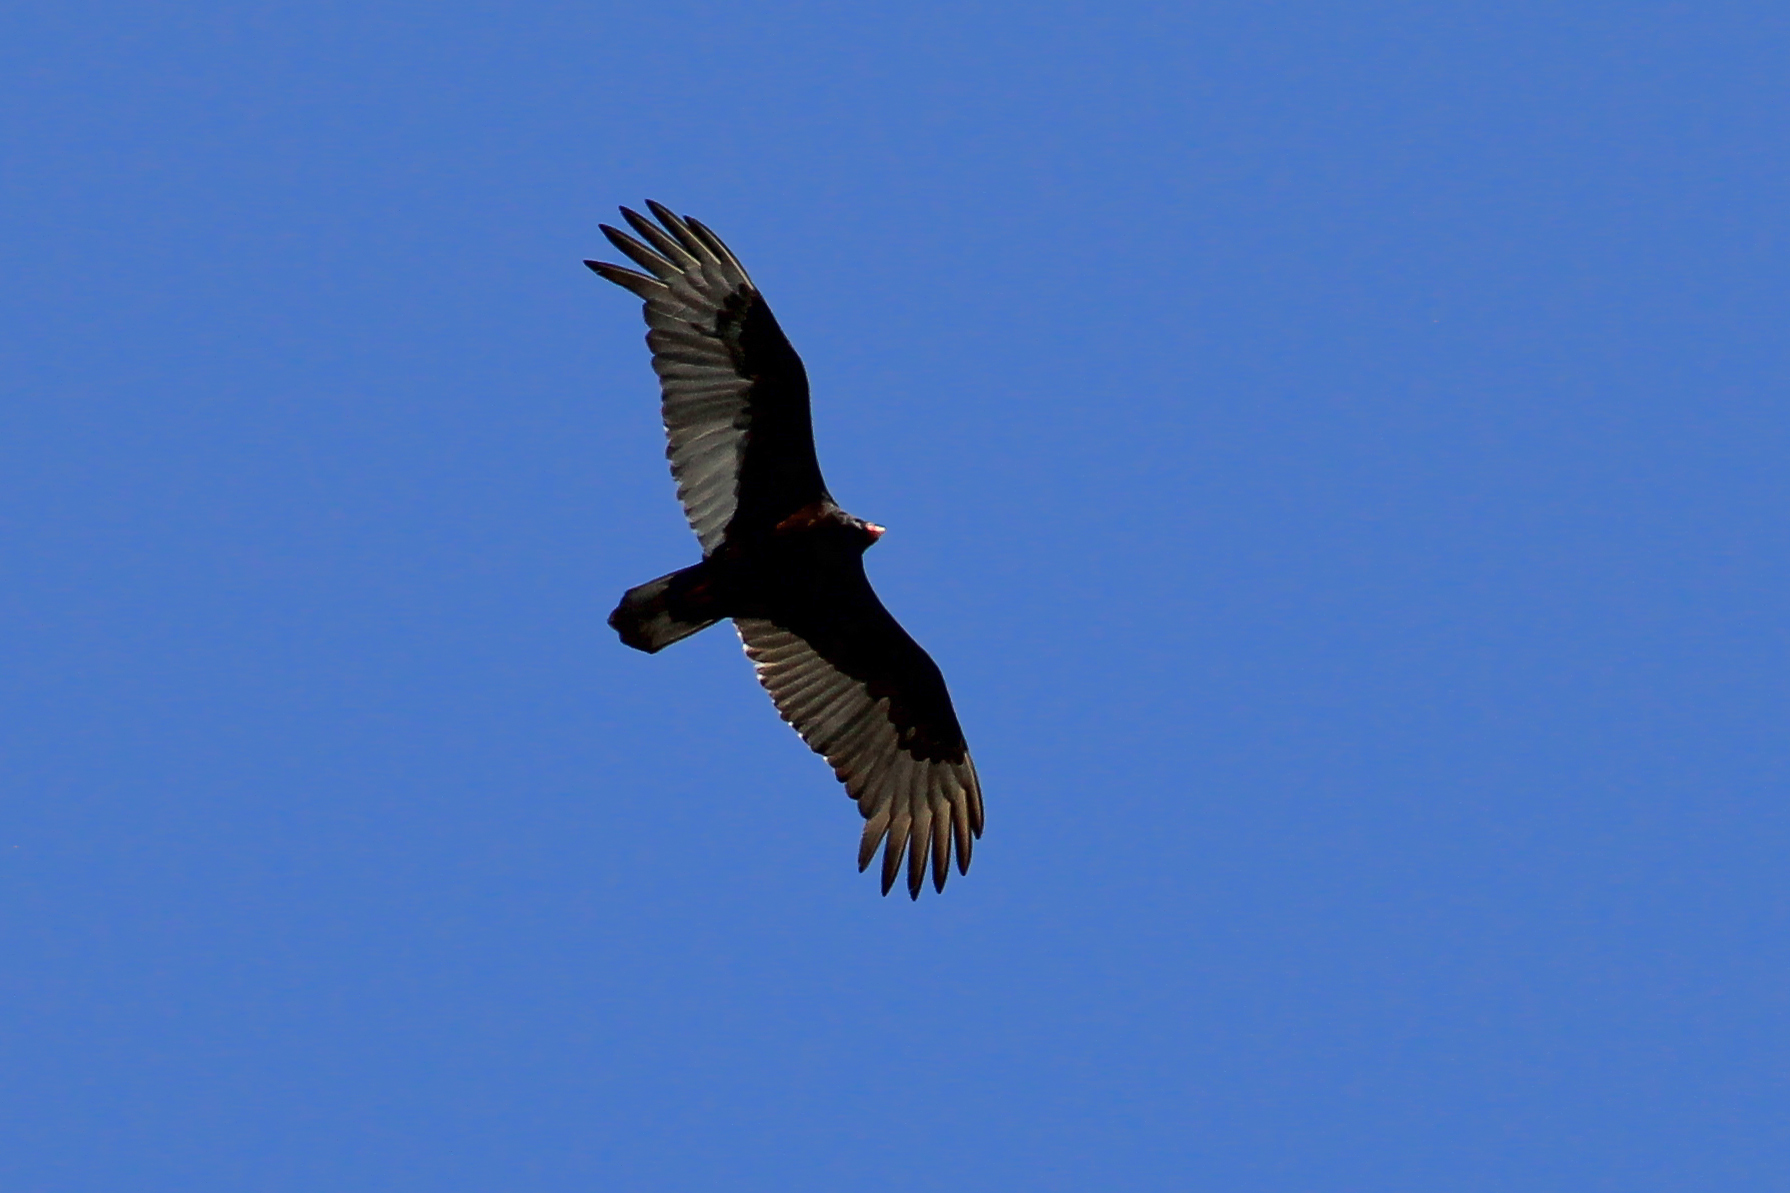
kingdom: Animalia
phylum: Chordata
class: Aves
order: Accipitriformes
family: Cathartidae
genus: Cathartes
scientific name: Cathartes aura
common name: Turkey vulture
